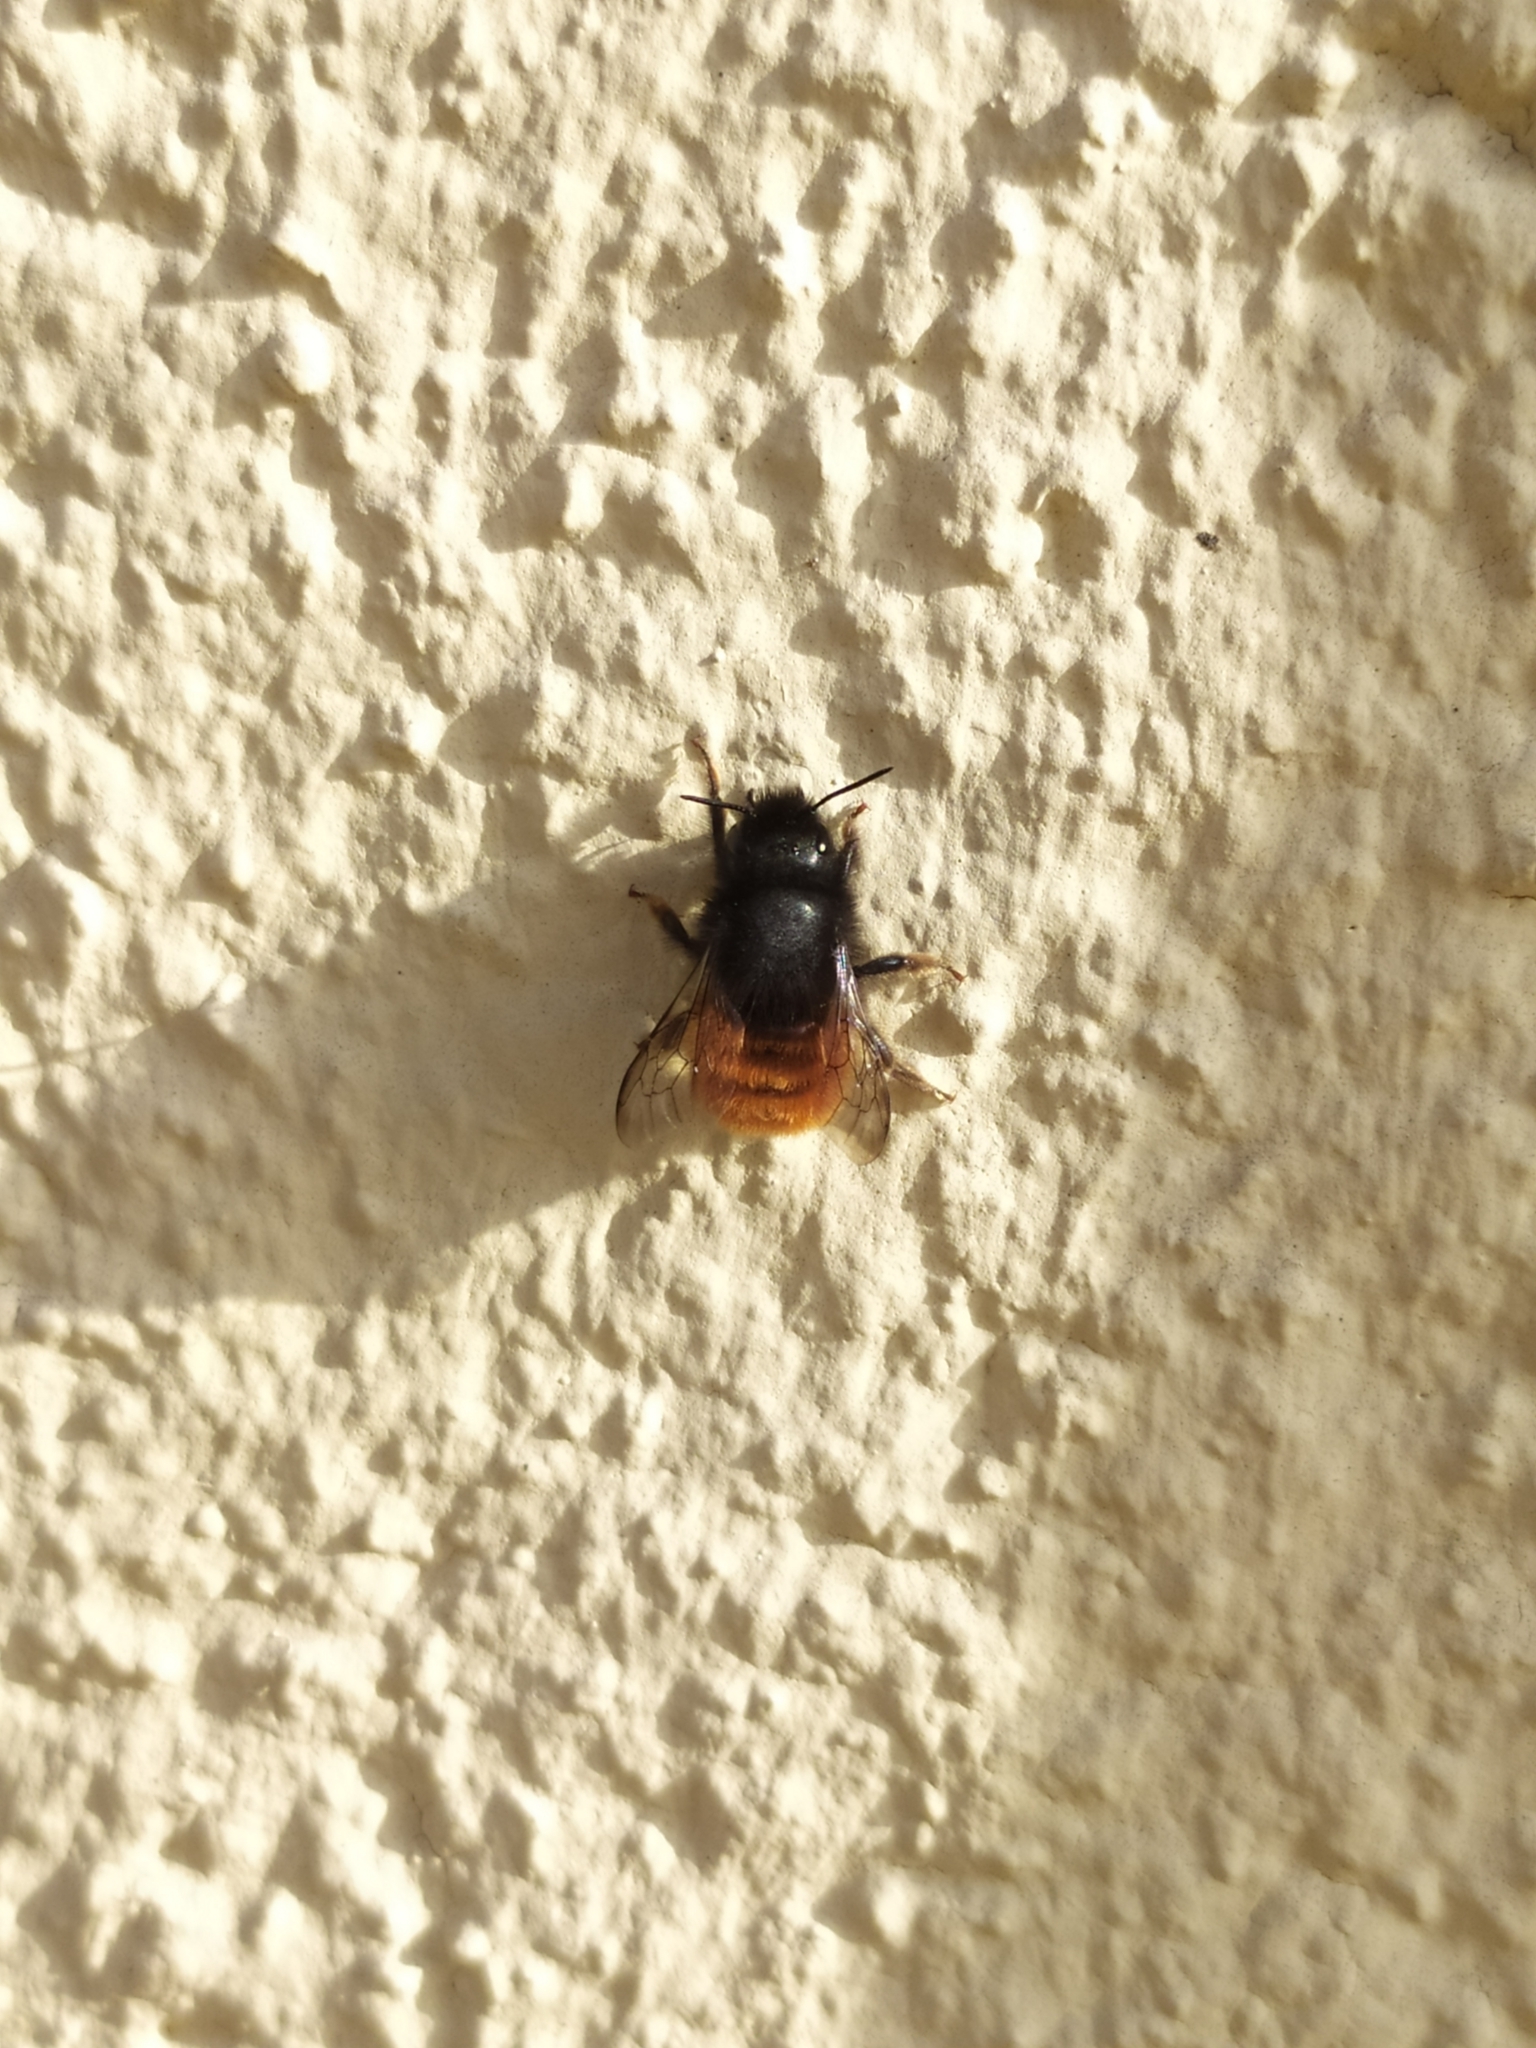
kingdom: Animalia
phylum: Arthropoda
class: Insecta
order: Hymenoptera
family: Megachilidae
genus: Osmia
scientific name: Osmia cornuta
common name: Mason bee
